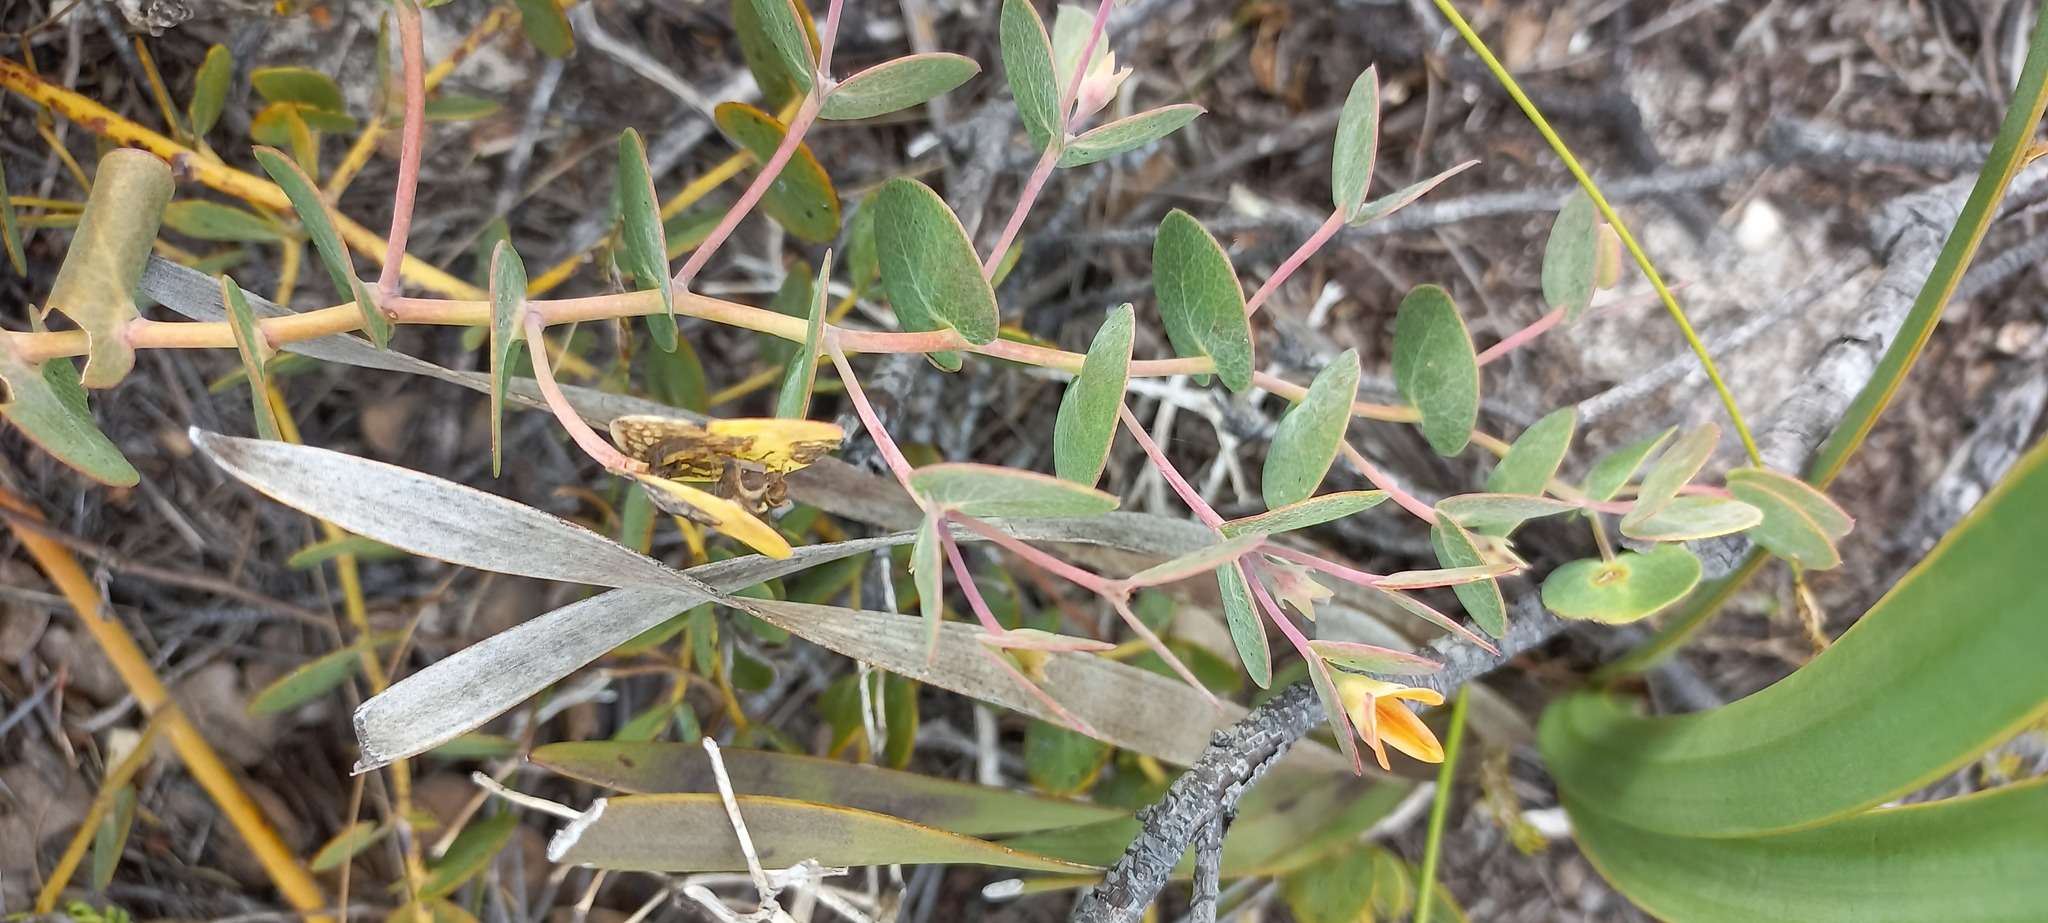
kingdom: Plantae
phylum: Tracheophyta
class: Magnoliopsida
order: Fabales
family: Fabaceae
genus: Rafnia
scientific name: Rafnia acuminata
